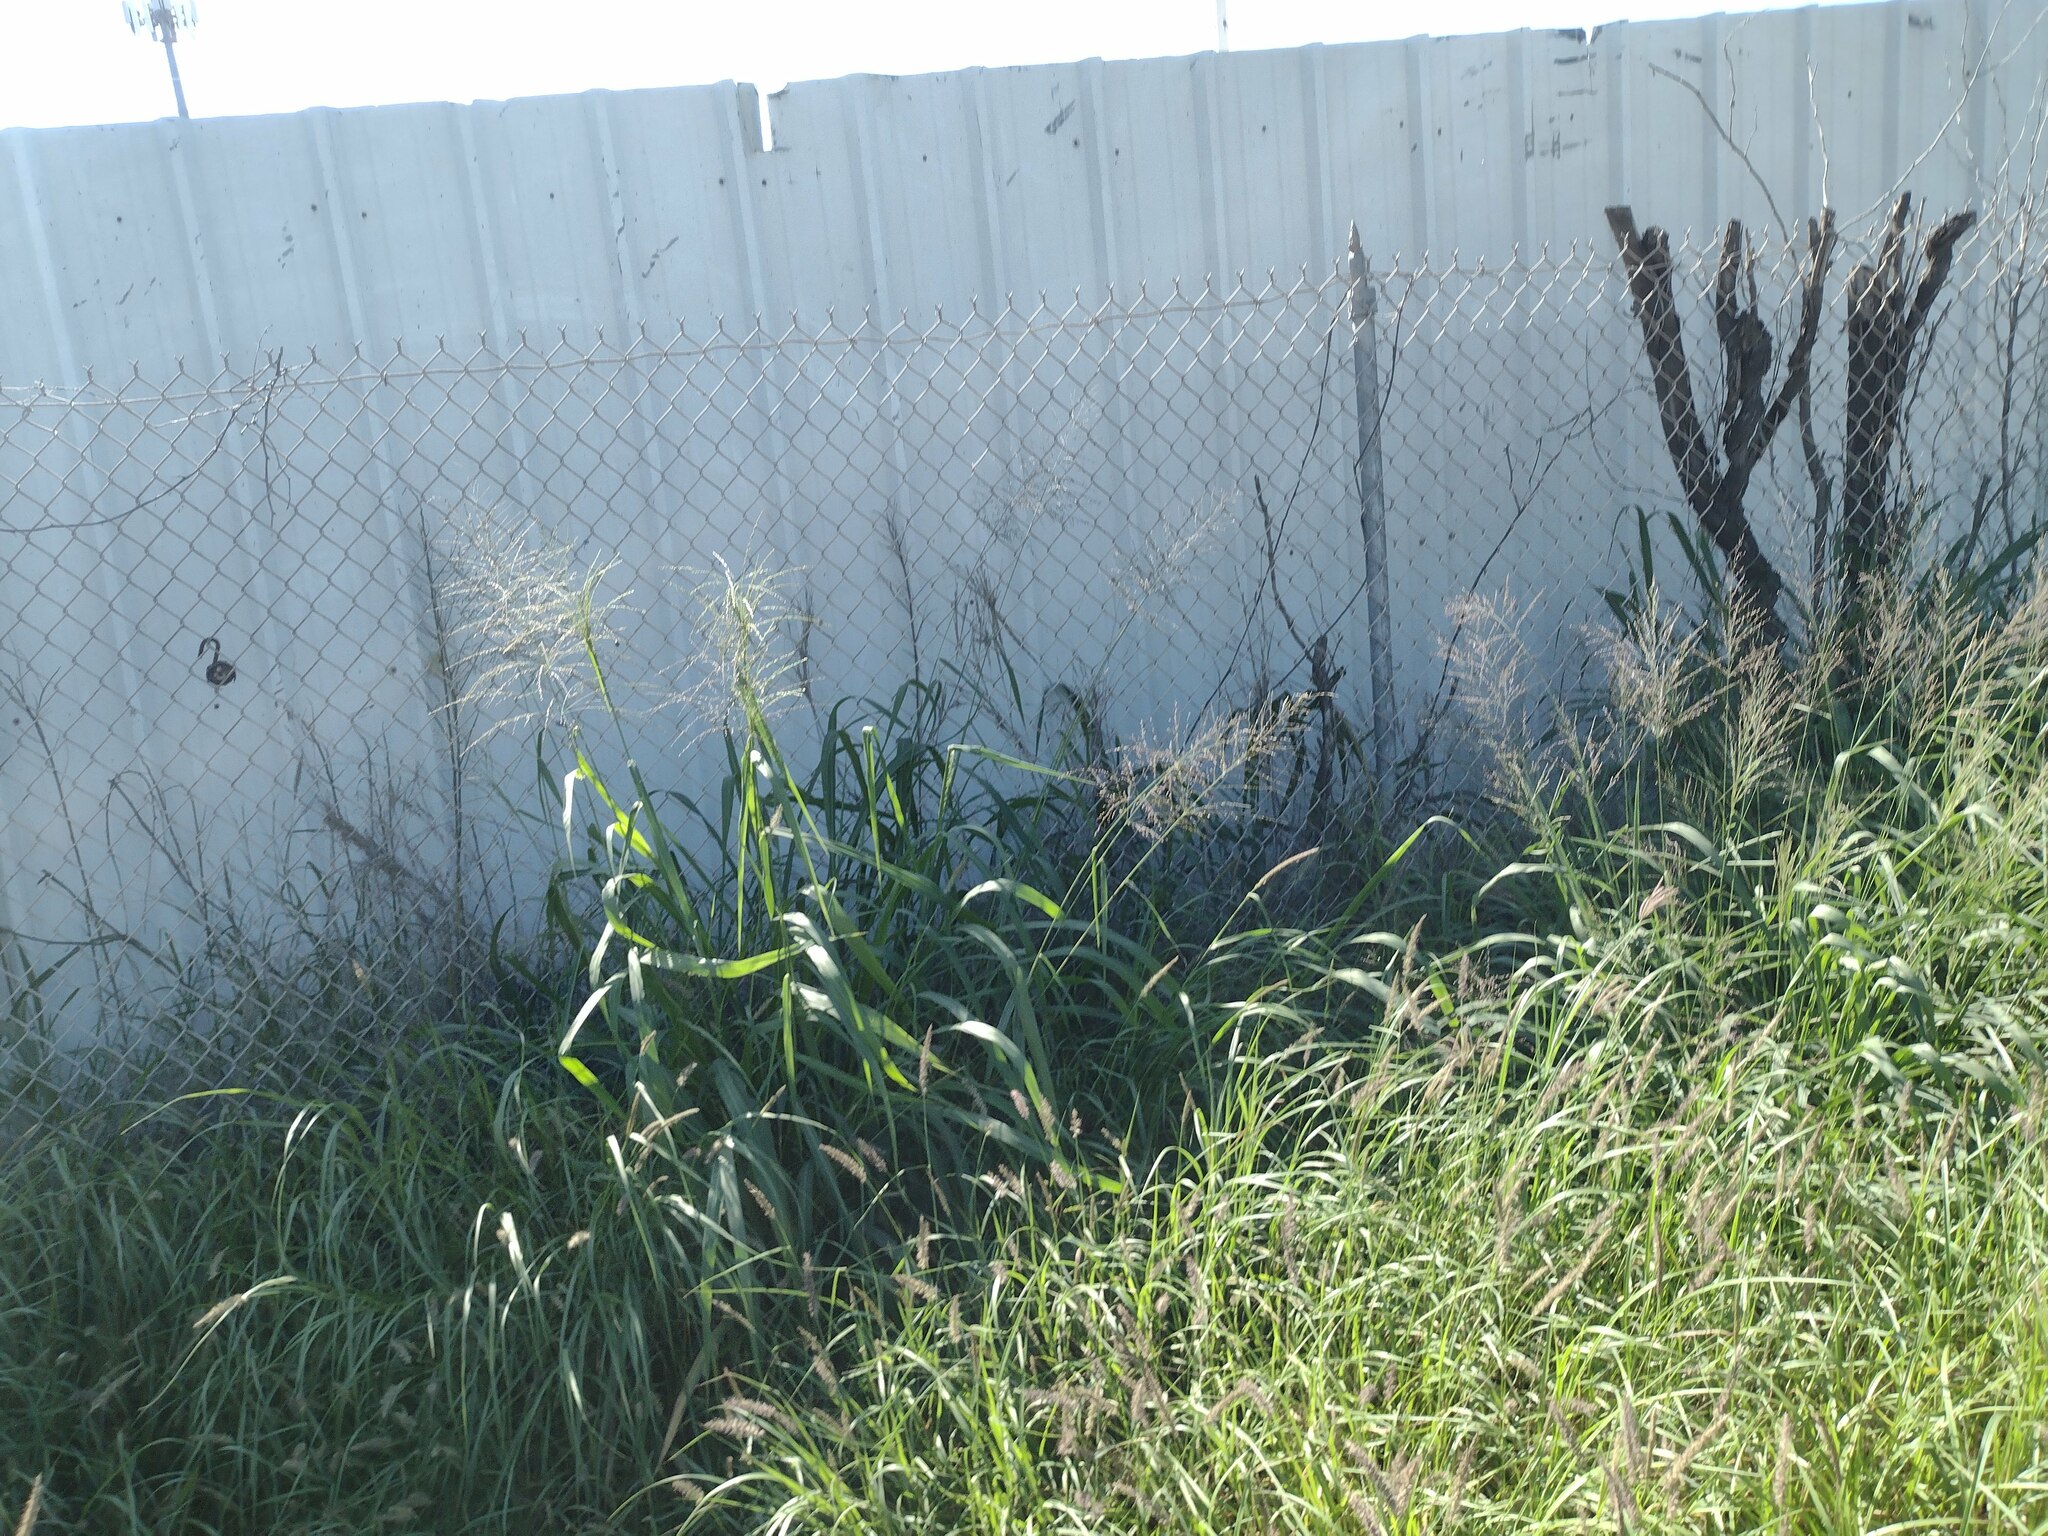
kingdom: Plantae
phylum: Tracheophyta
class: Liliopsida
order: Poales
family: Poaceae
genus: Megathyrsus
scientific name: Megathyrsus maximus
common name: Guineagrass
